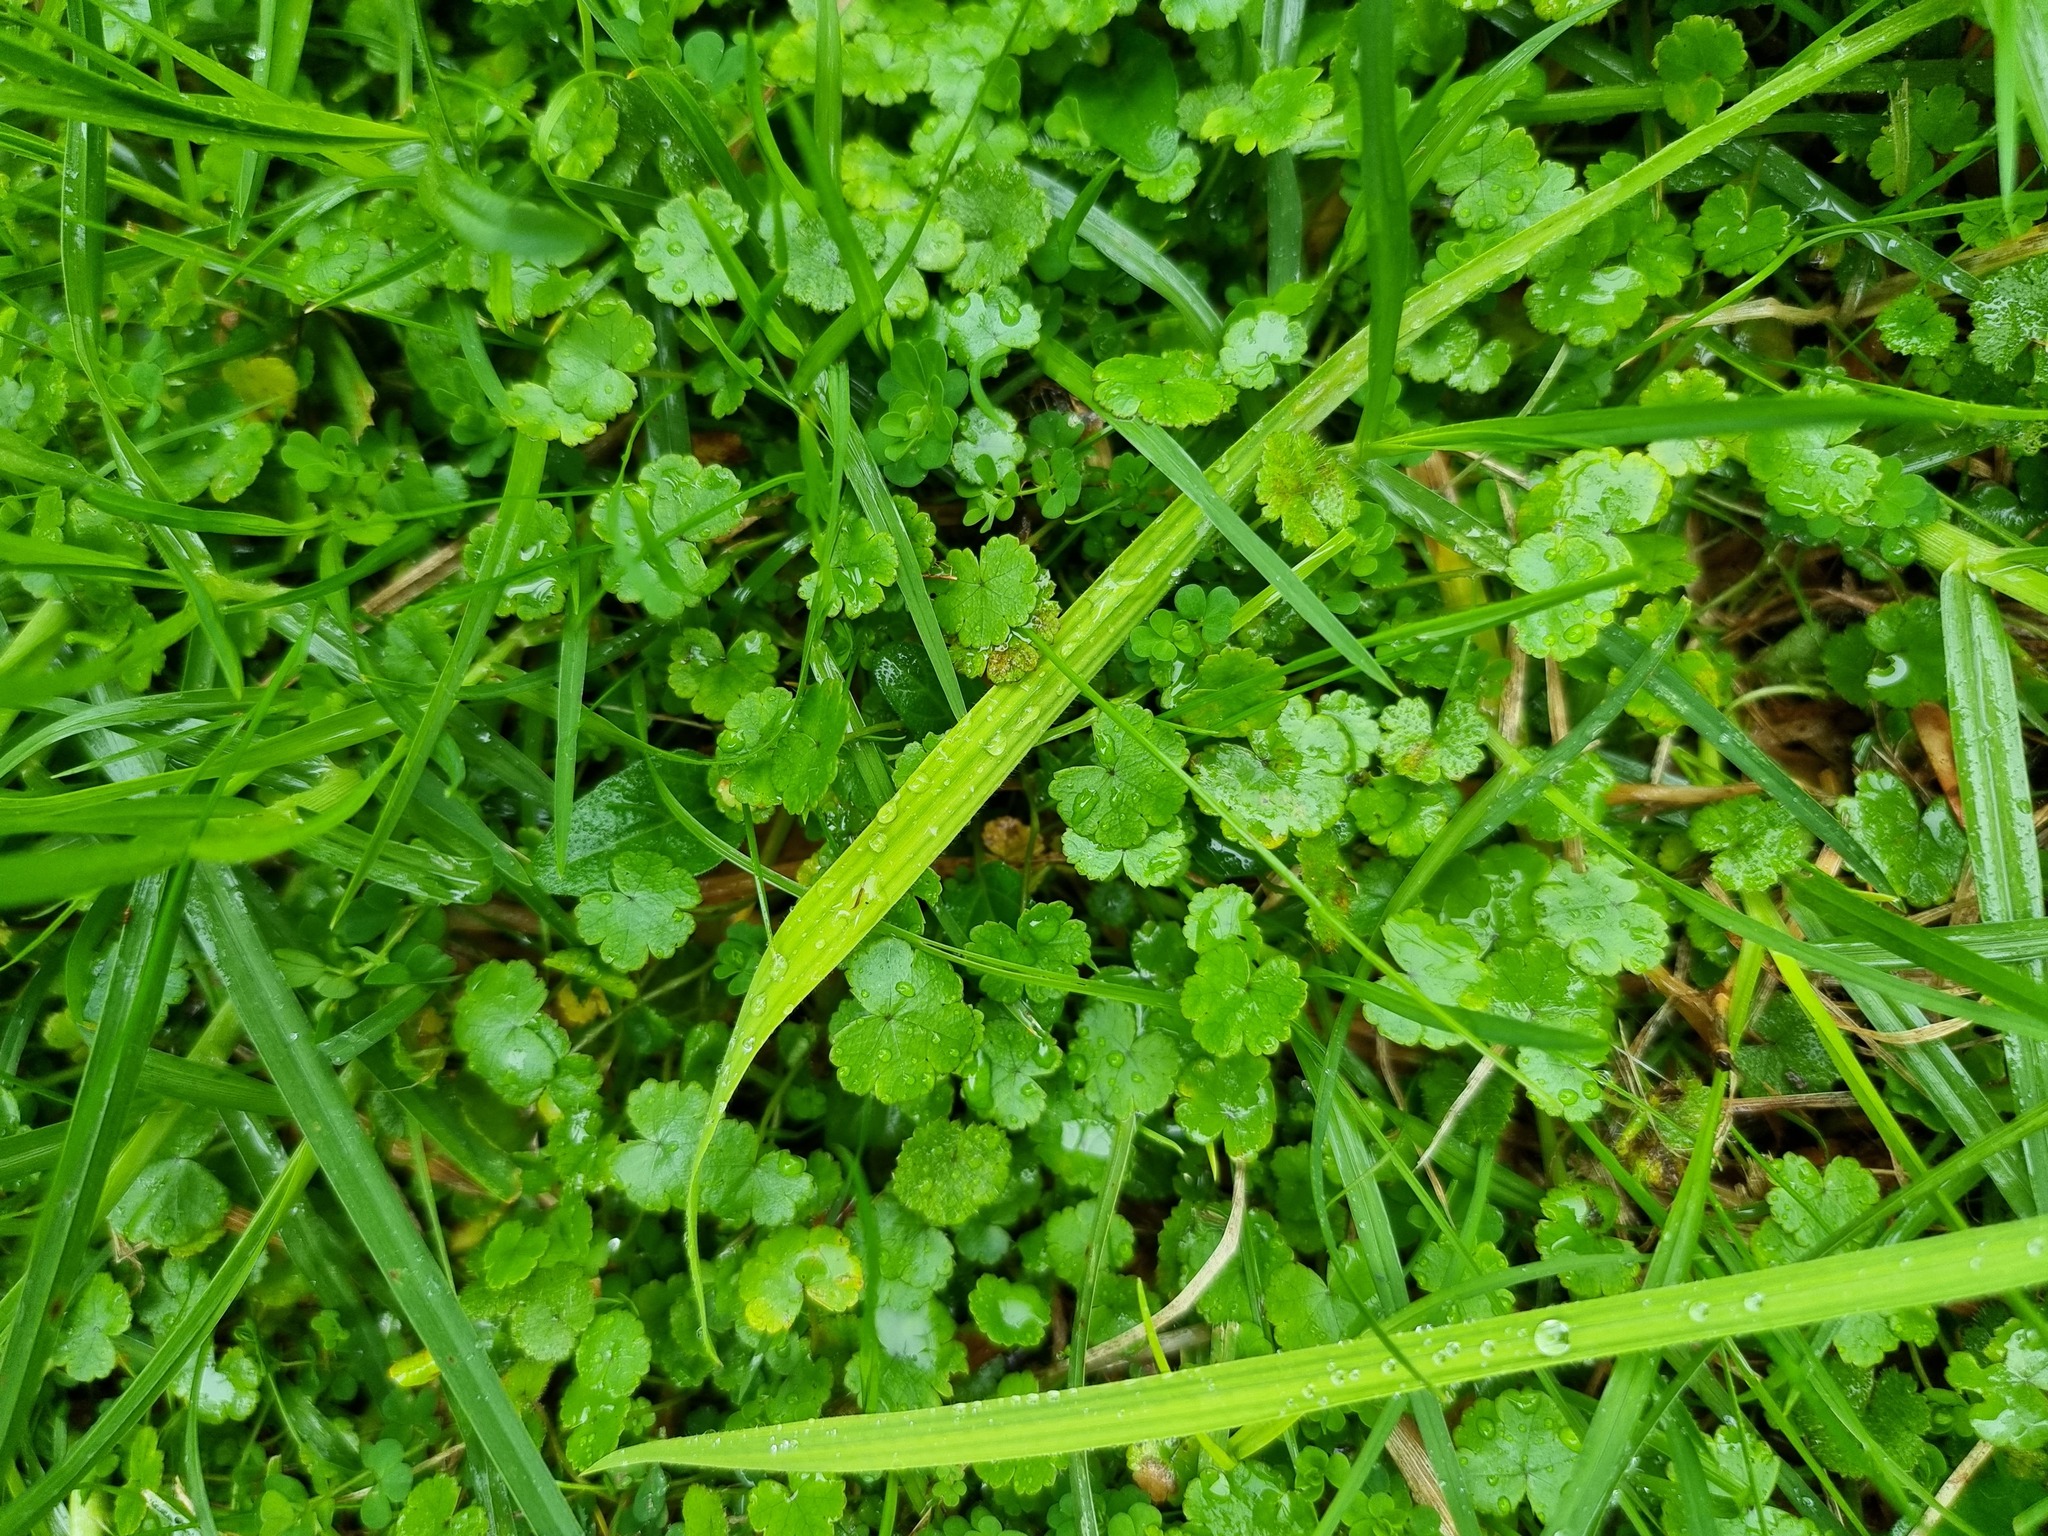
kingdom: Plantae
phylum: Tracheophyta
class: Magnoliopsida
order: Apiales
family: Araliaceae
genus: Hydrocotyle
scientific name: Hydrocotyle heteromeria
